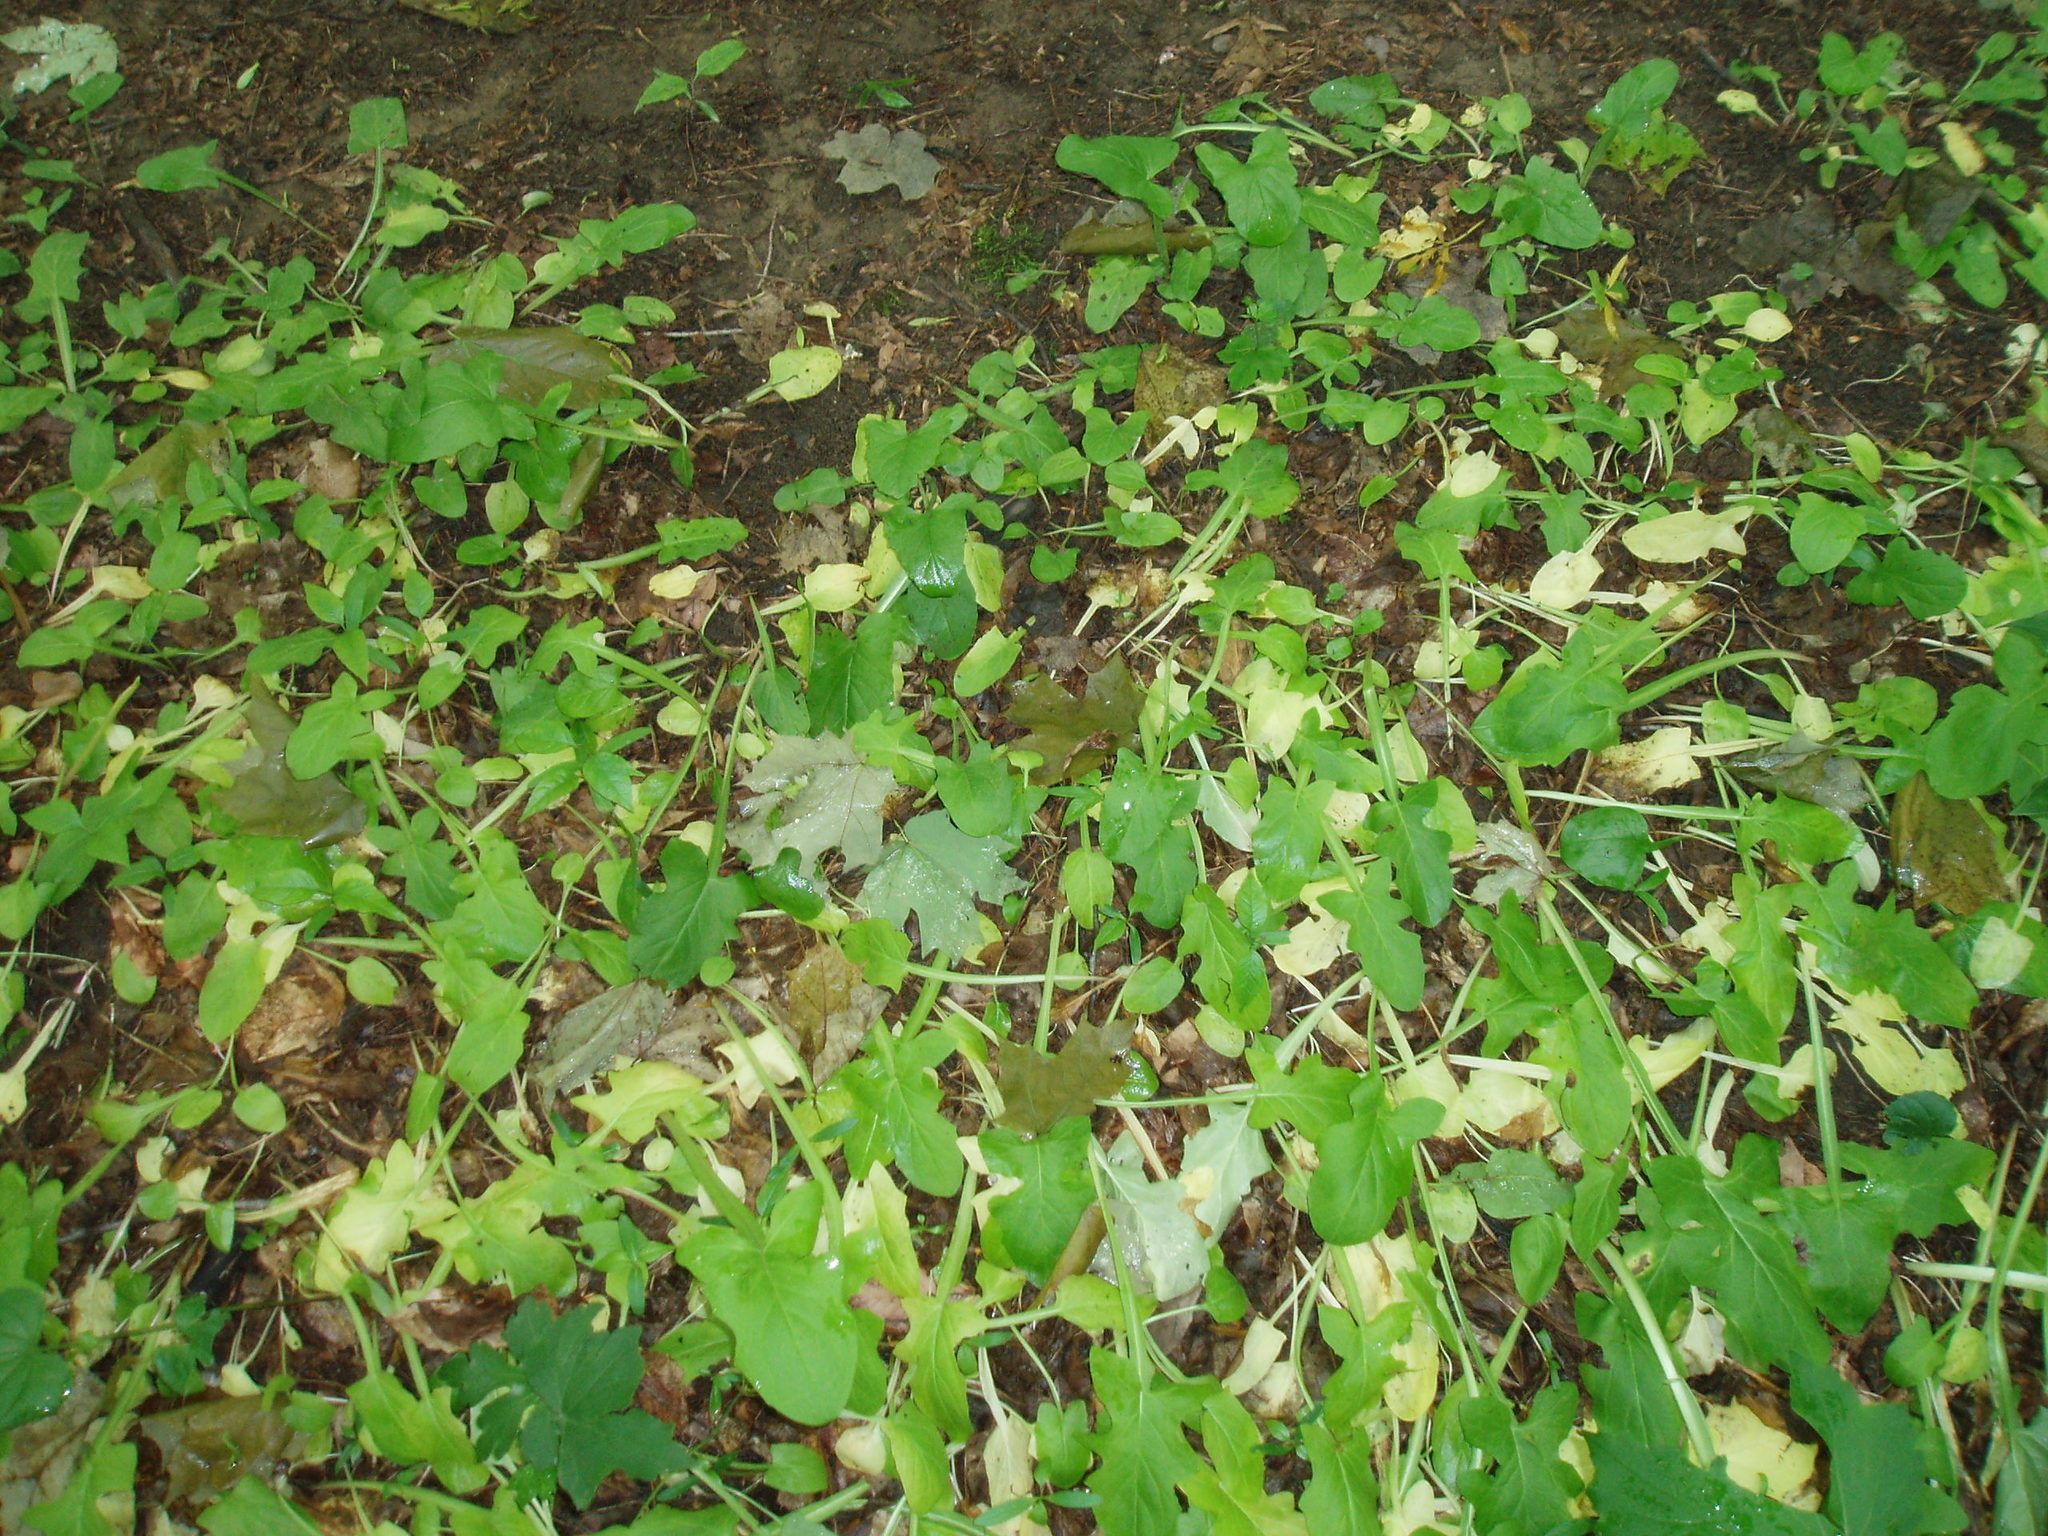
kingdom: Plantae
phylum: Tracheophyta
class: Magnoliopsida
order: Asterales
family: Asteraceae
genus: Nabalus
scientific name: Nabalus crepidineus
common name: Nodding rattlesnakeroot
